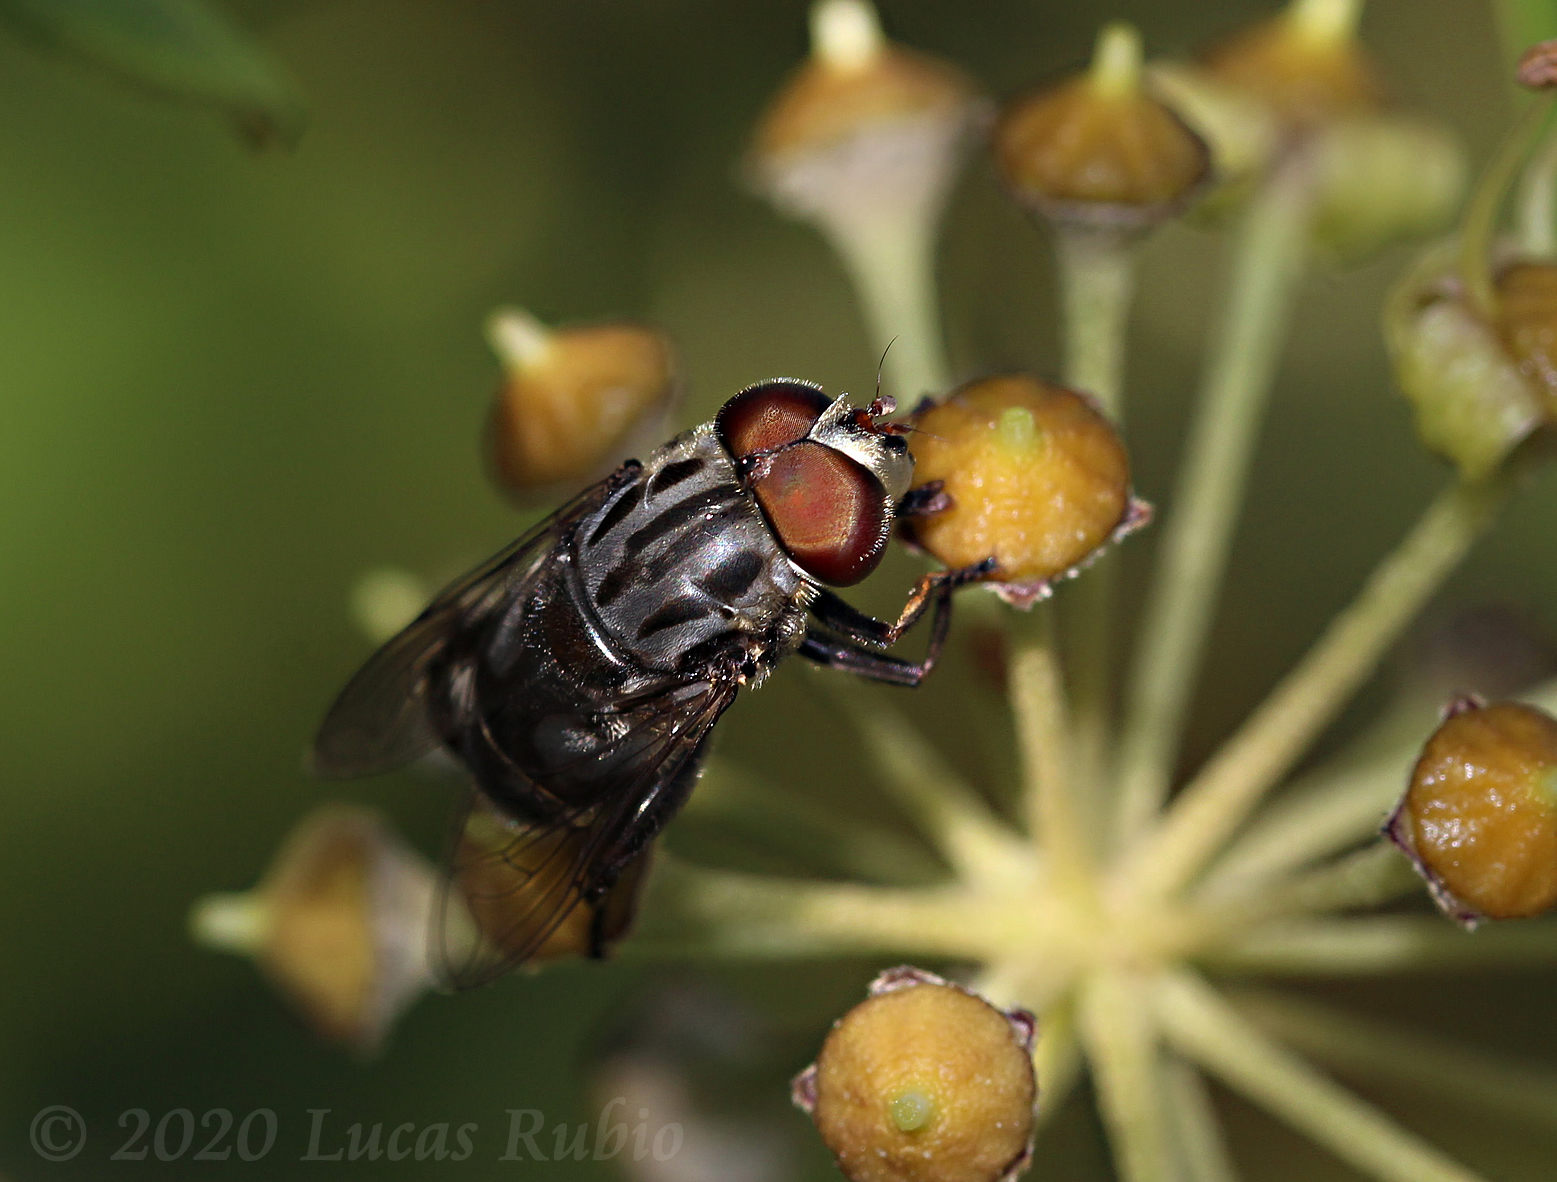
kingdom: Animalia
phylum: Arthropoda
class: Insecta
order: Diptera
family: Syrphidae
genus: Palpada
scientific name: Palpada furcata
